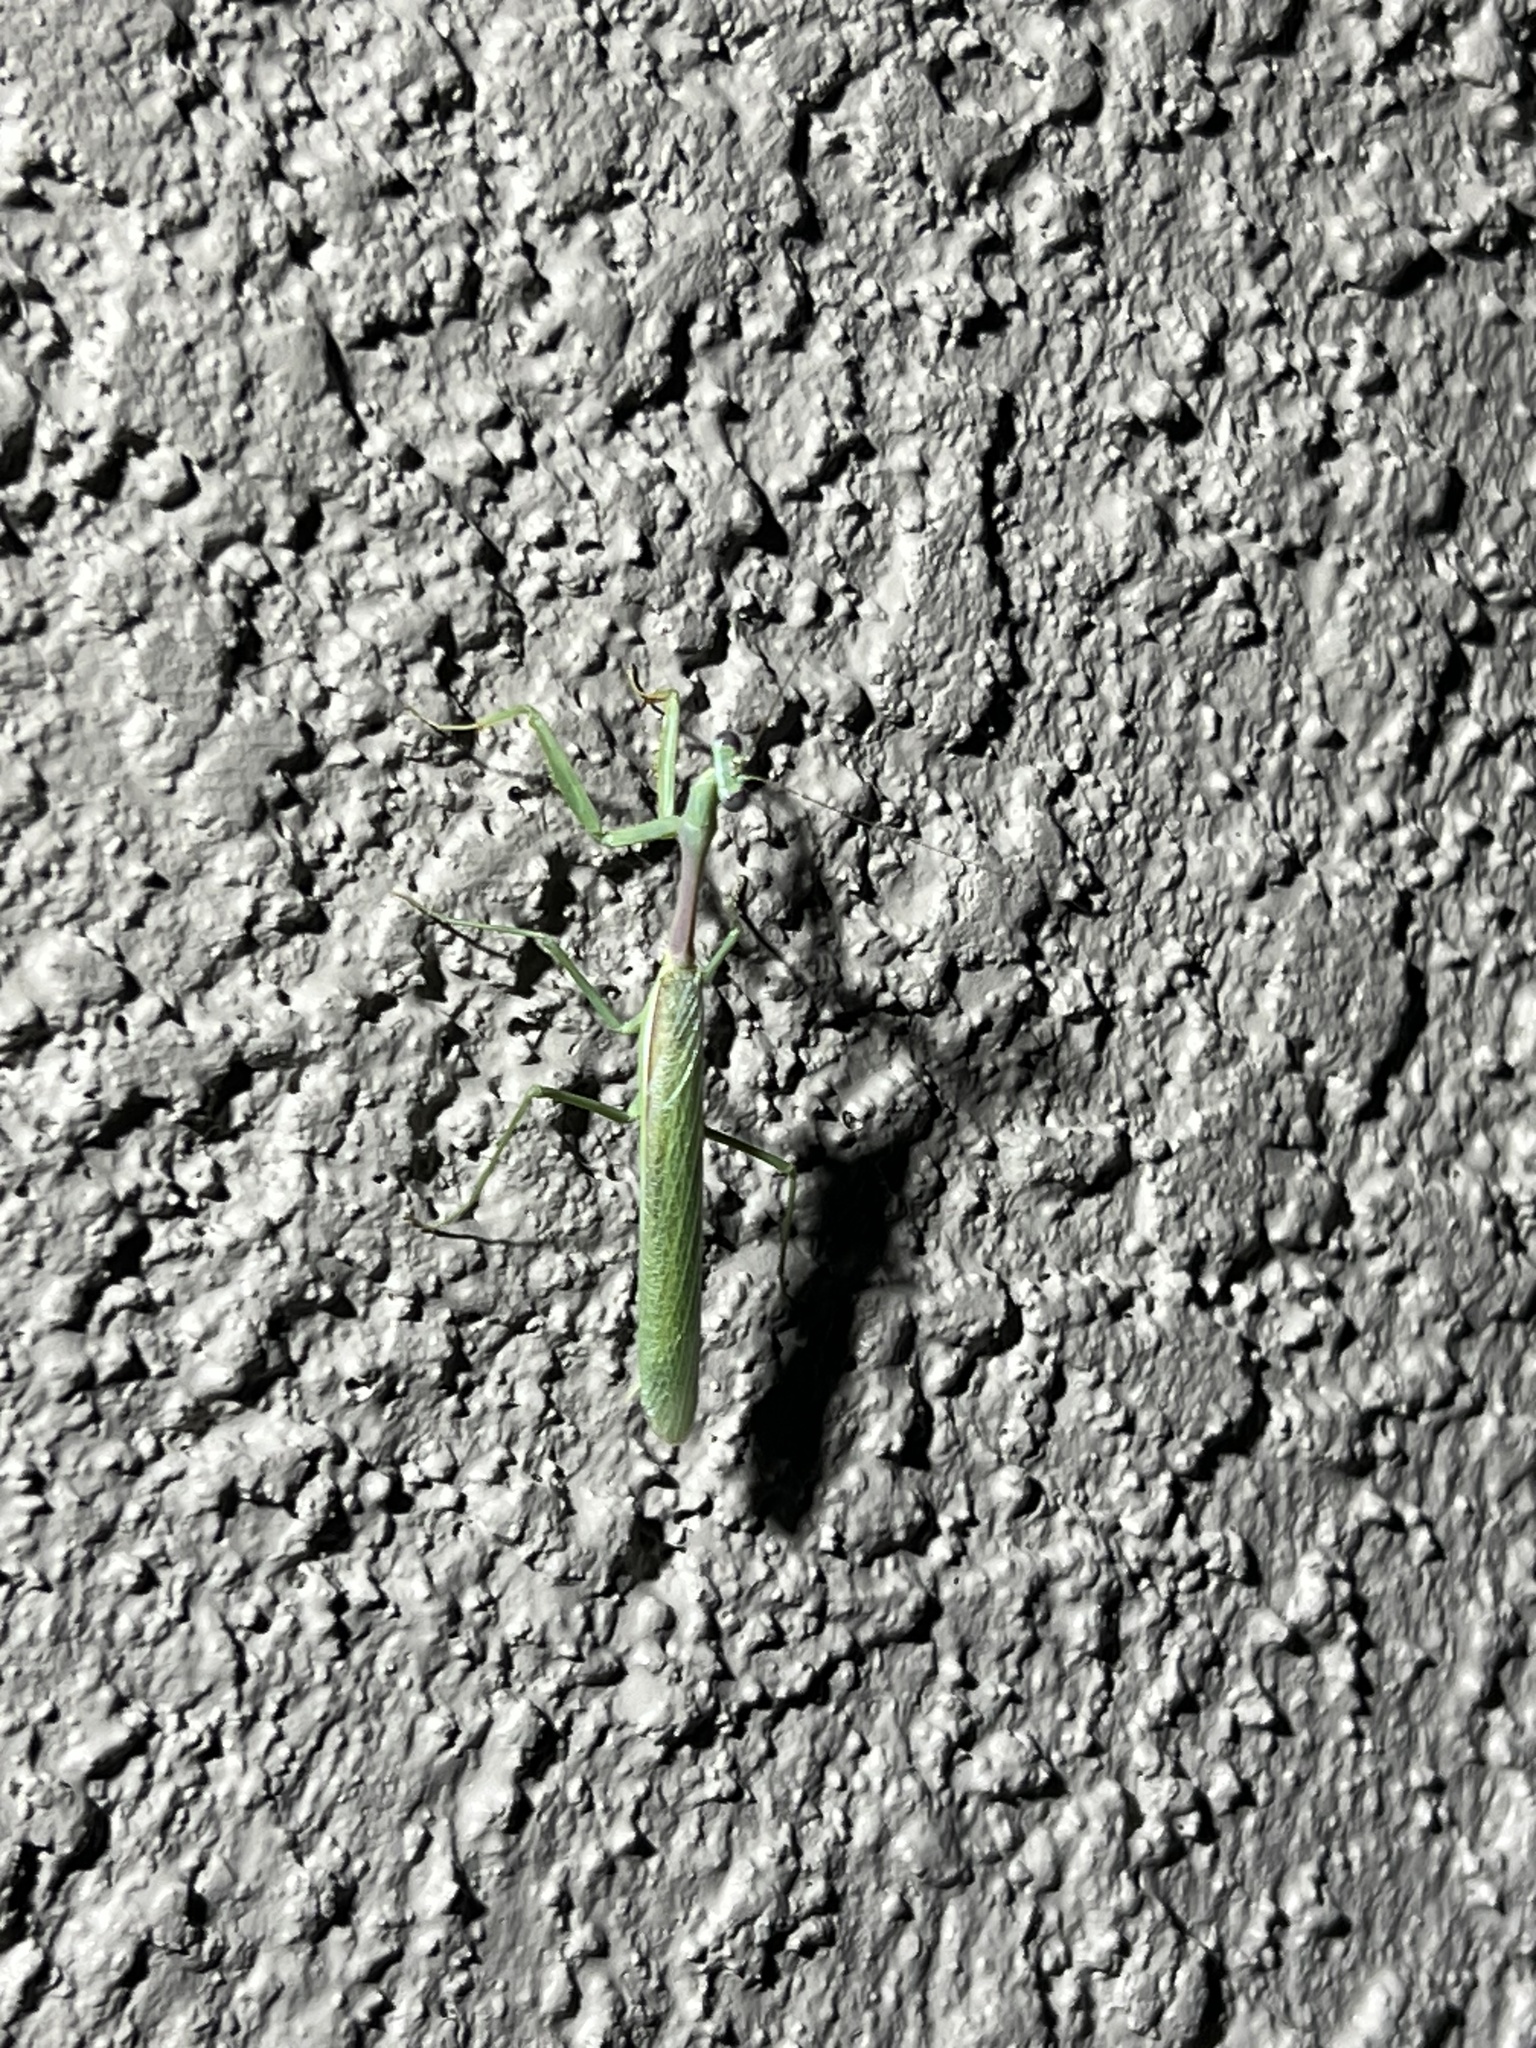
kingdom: Animalia
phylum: Arthropoda
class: Insecta
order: Mantodea
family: Mantidae
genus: Stagmomantis
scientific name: Stagmomantis limbata
